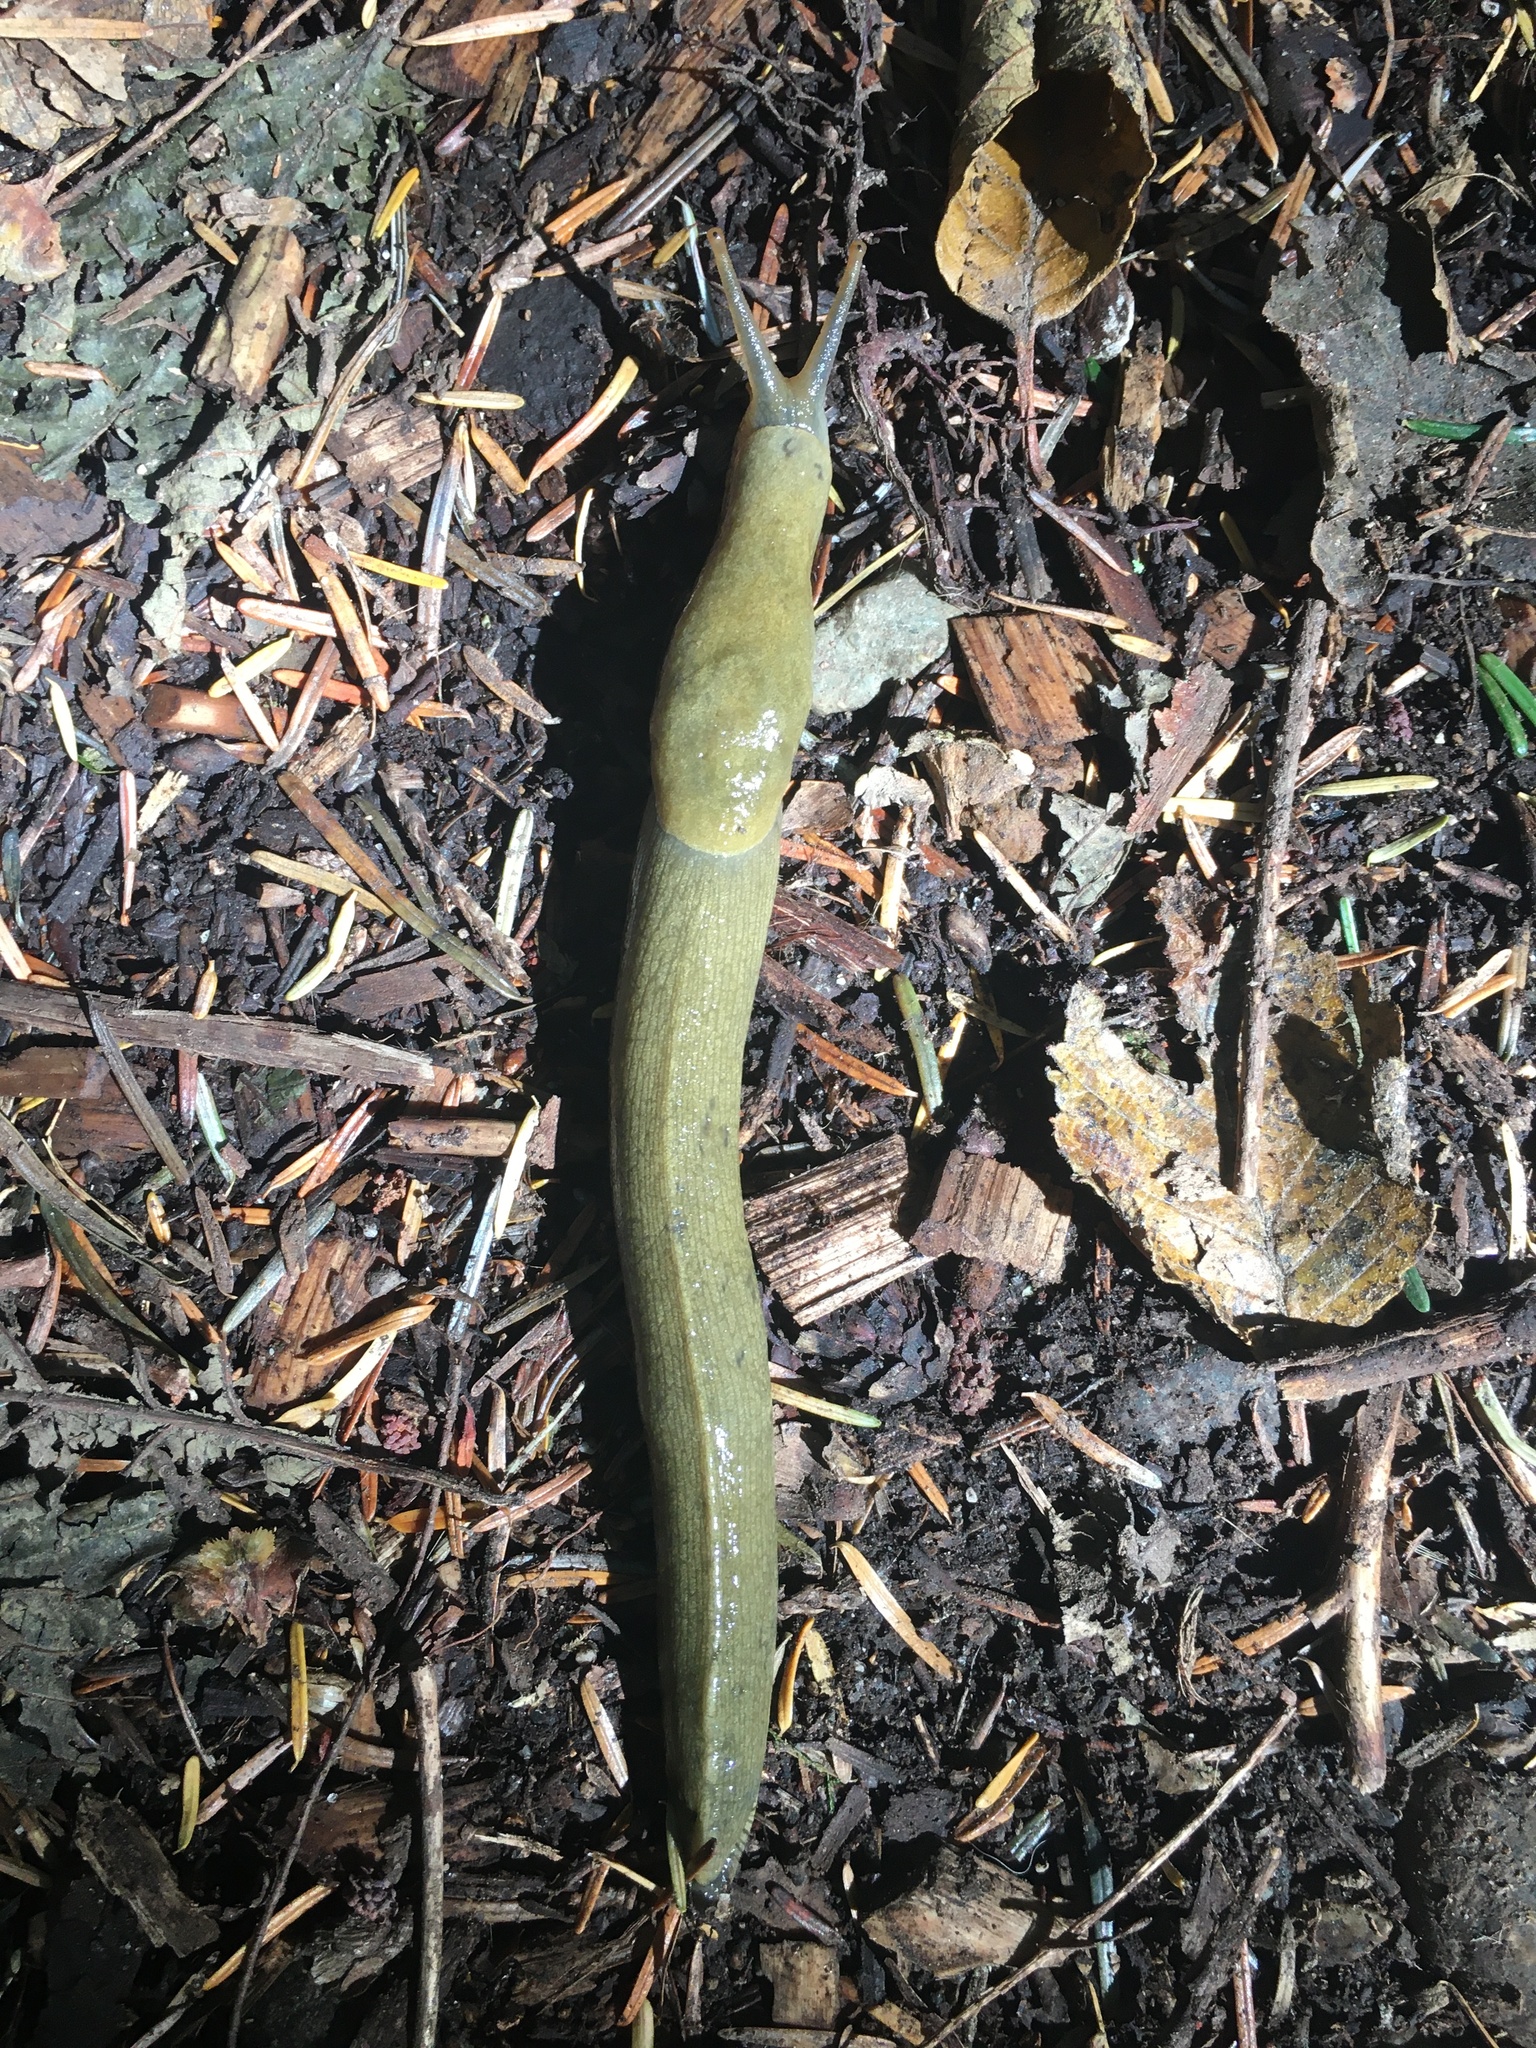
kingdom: Animalia
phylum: Mollusca
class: Gastropoda
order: Stylommatophora
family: Ariolimacidae
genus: Ariolimax
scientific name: Ariolimax columbianus
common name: Pacific banana slug
